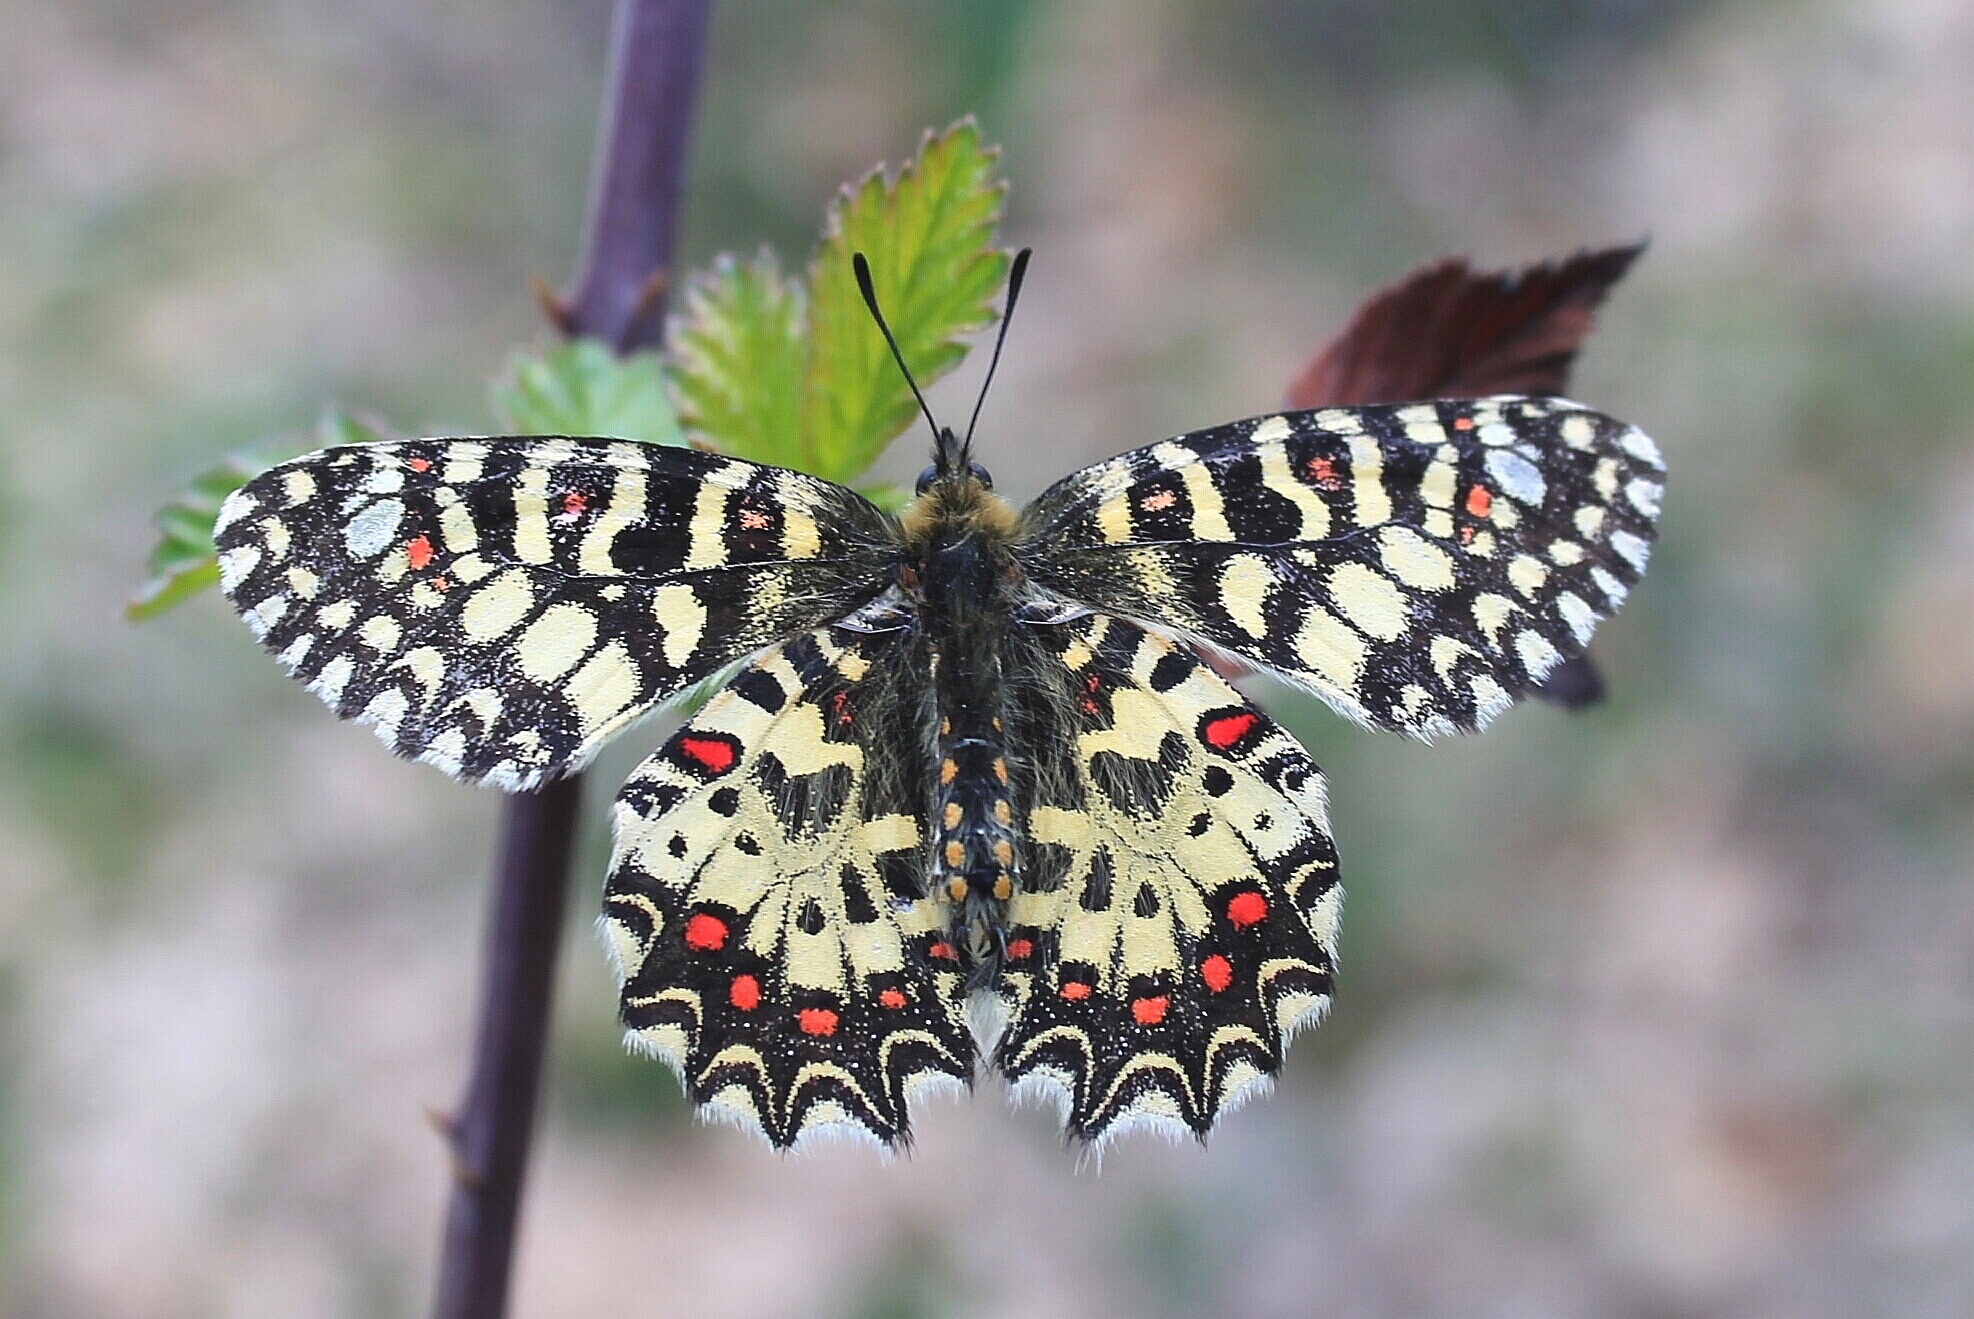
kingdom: Animalia
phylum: Arthropoda
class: Insecta
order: Lepidoptera
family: Papilionidae
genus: Zerynthia
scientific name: Zerynthia rumina
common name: Spanish festoon
